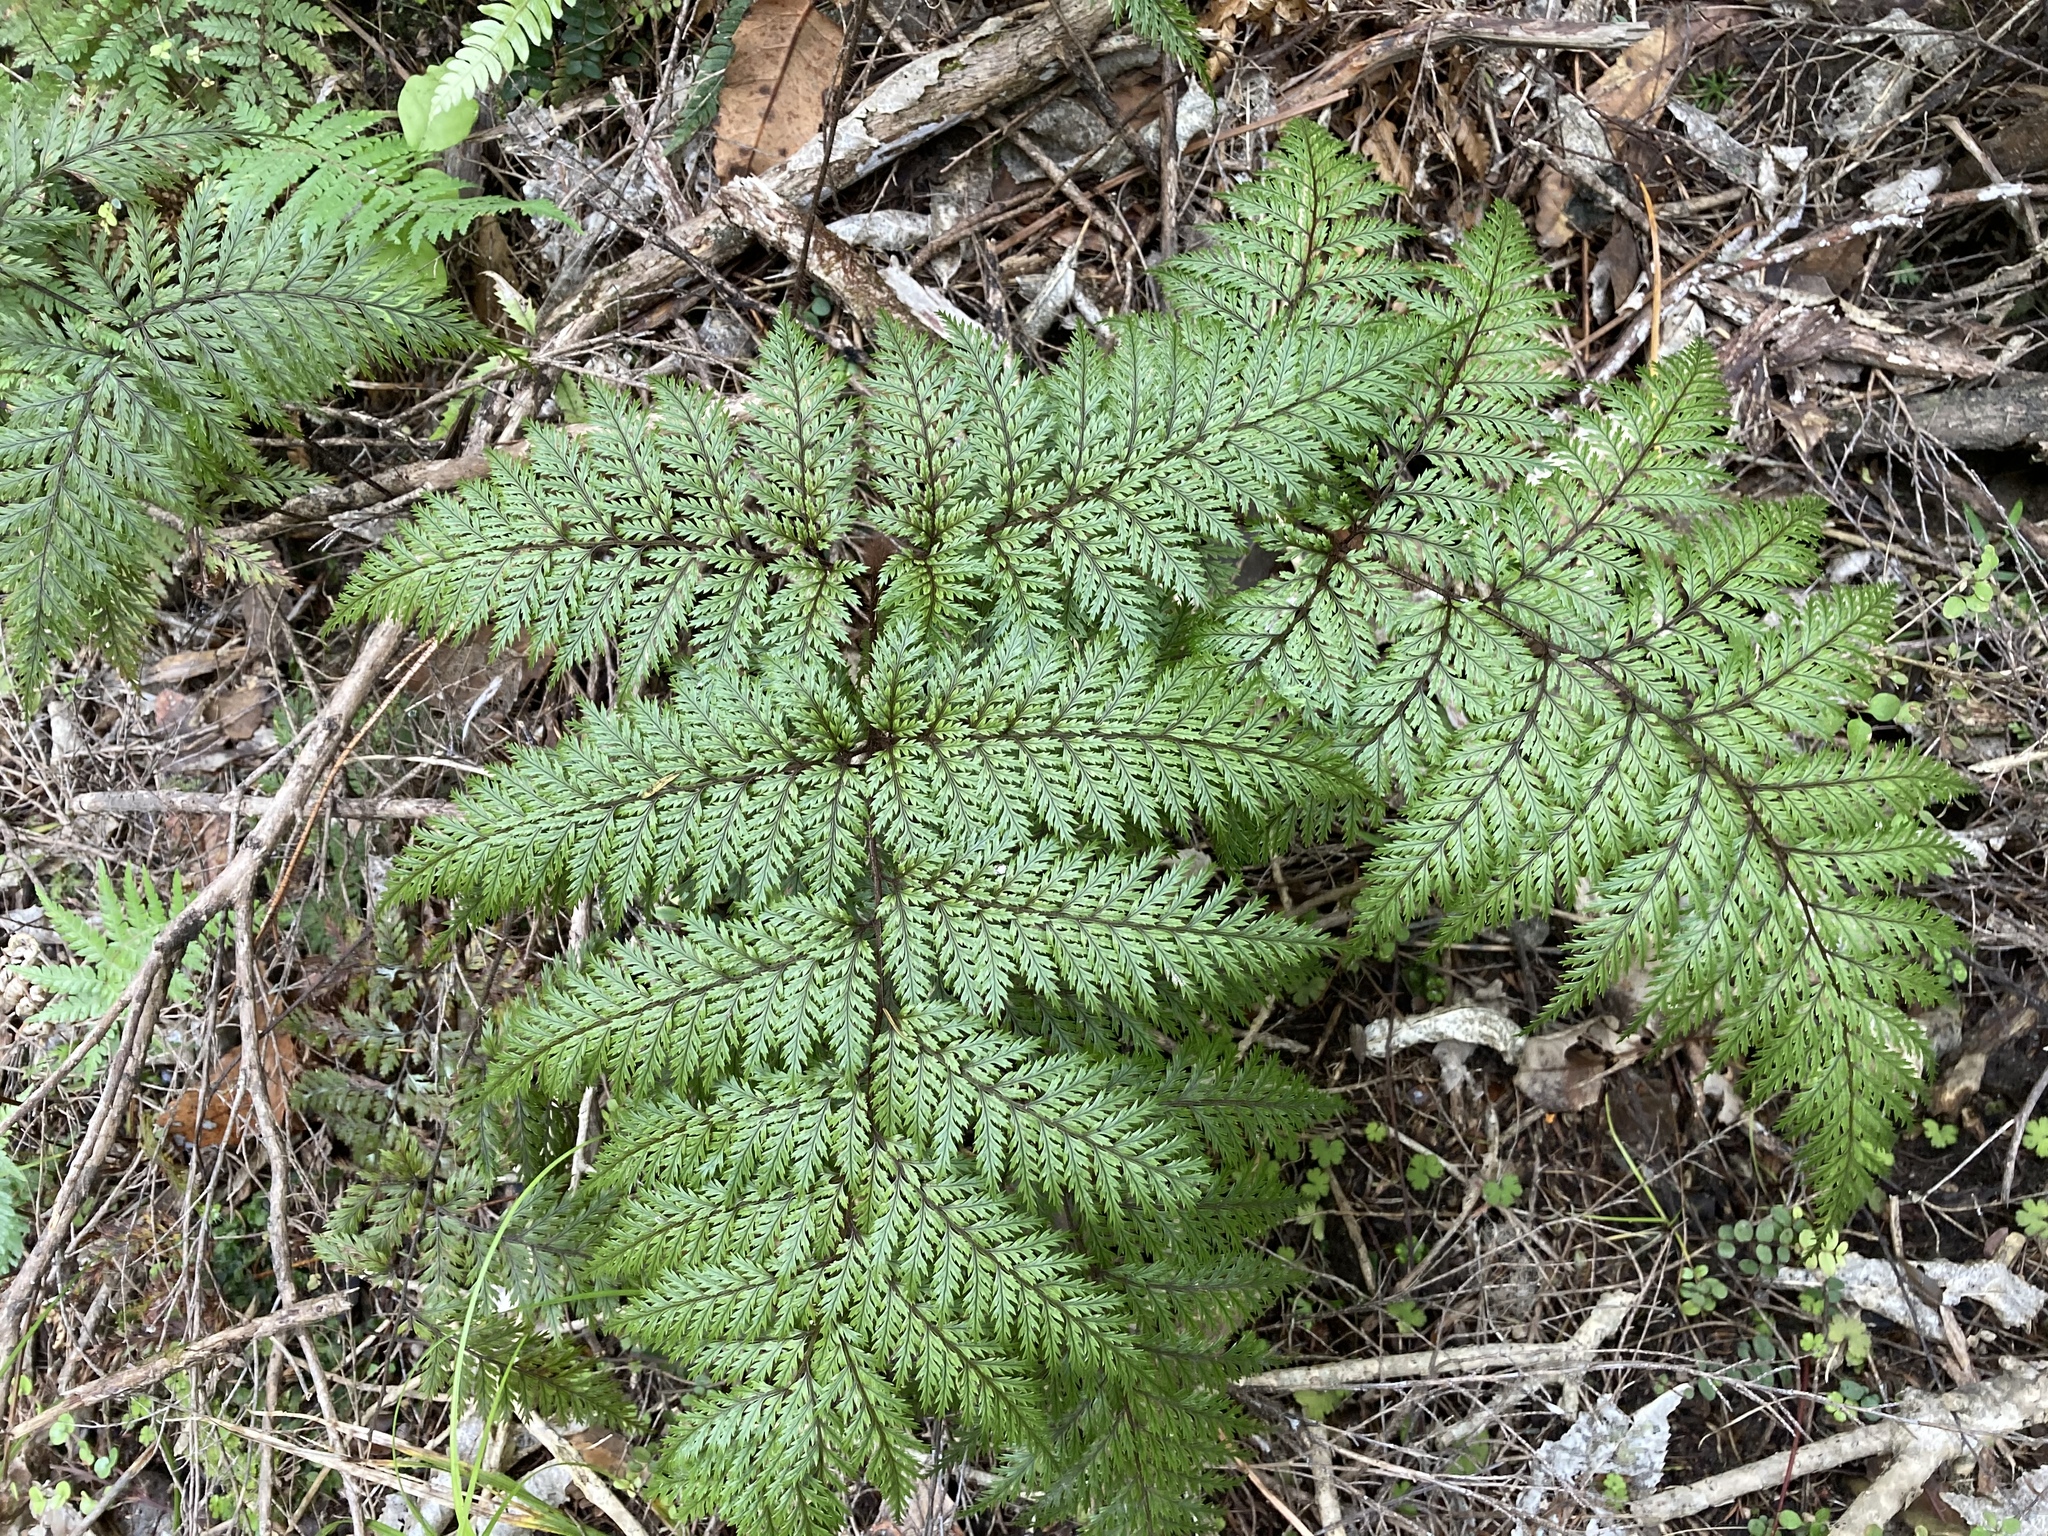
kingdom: Plantae
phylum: Tracheophyta
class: Polypodiopsida
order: Polypodiales
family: Dryopteridaceae
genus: Lastreopsis
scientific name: Lastreopsis hispida
